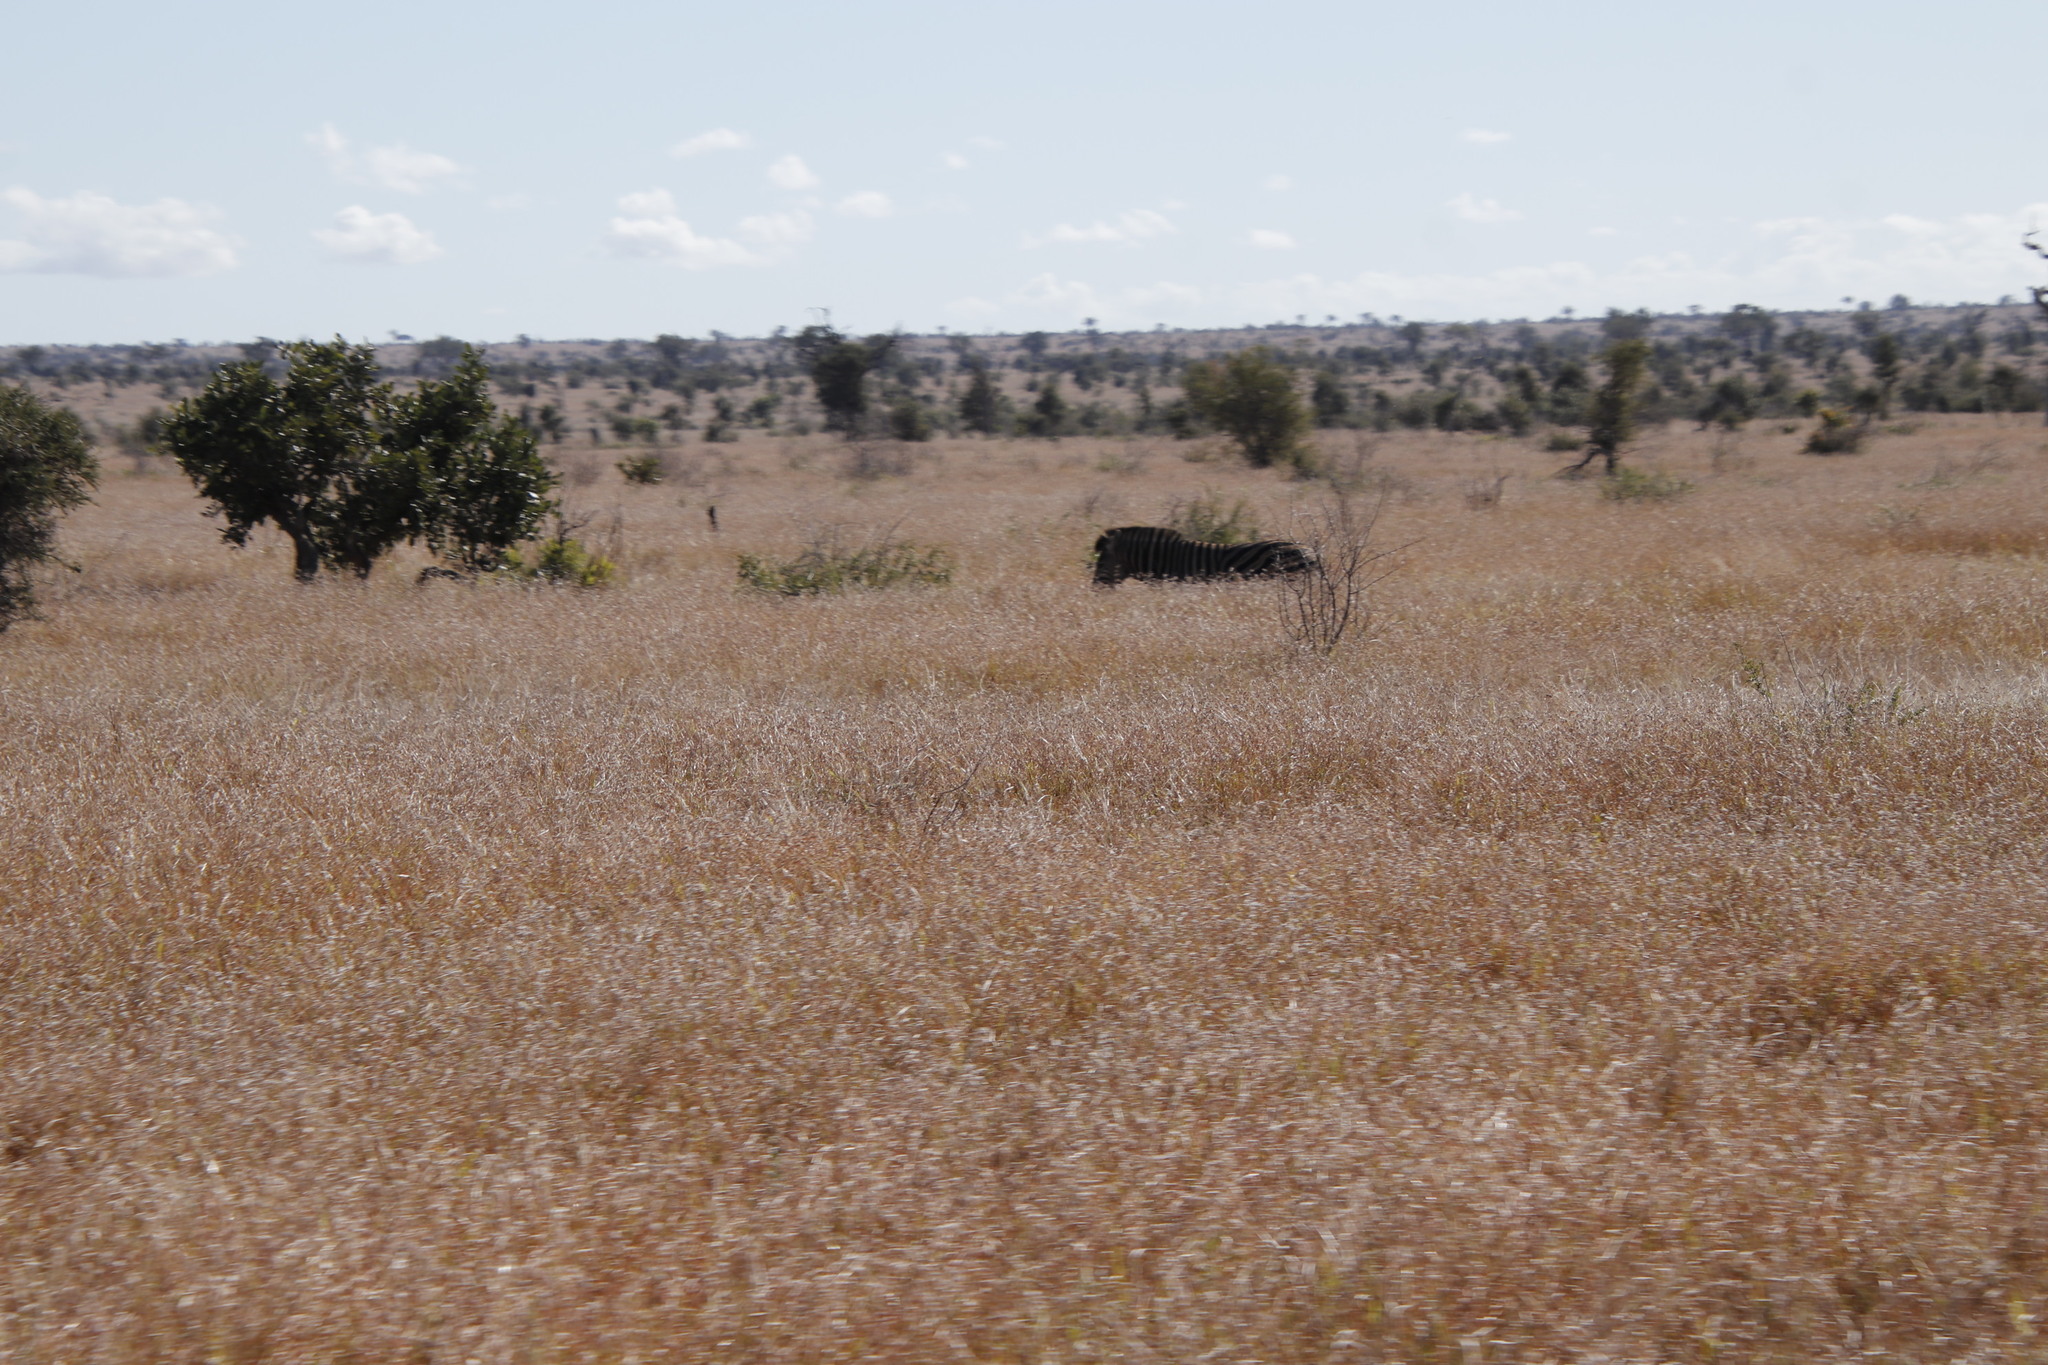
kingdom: Animalia
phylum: Chordata
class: Mammalia
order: Perissodactyla
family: Equidae
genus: Equus
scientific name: Equus quagga
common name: Plains zebra
